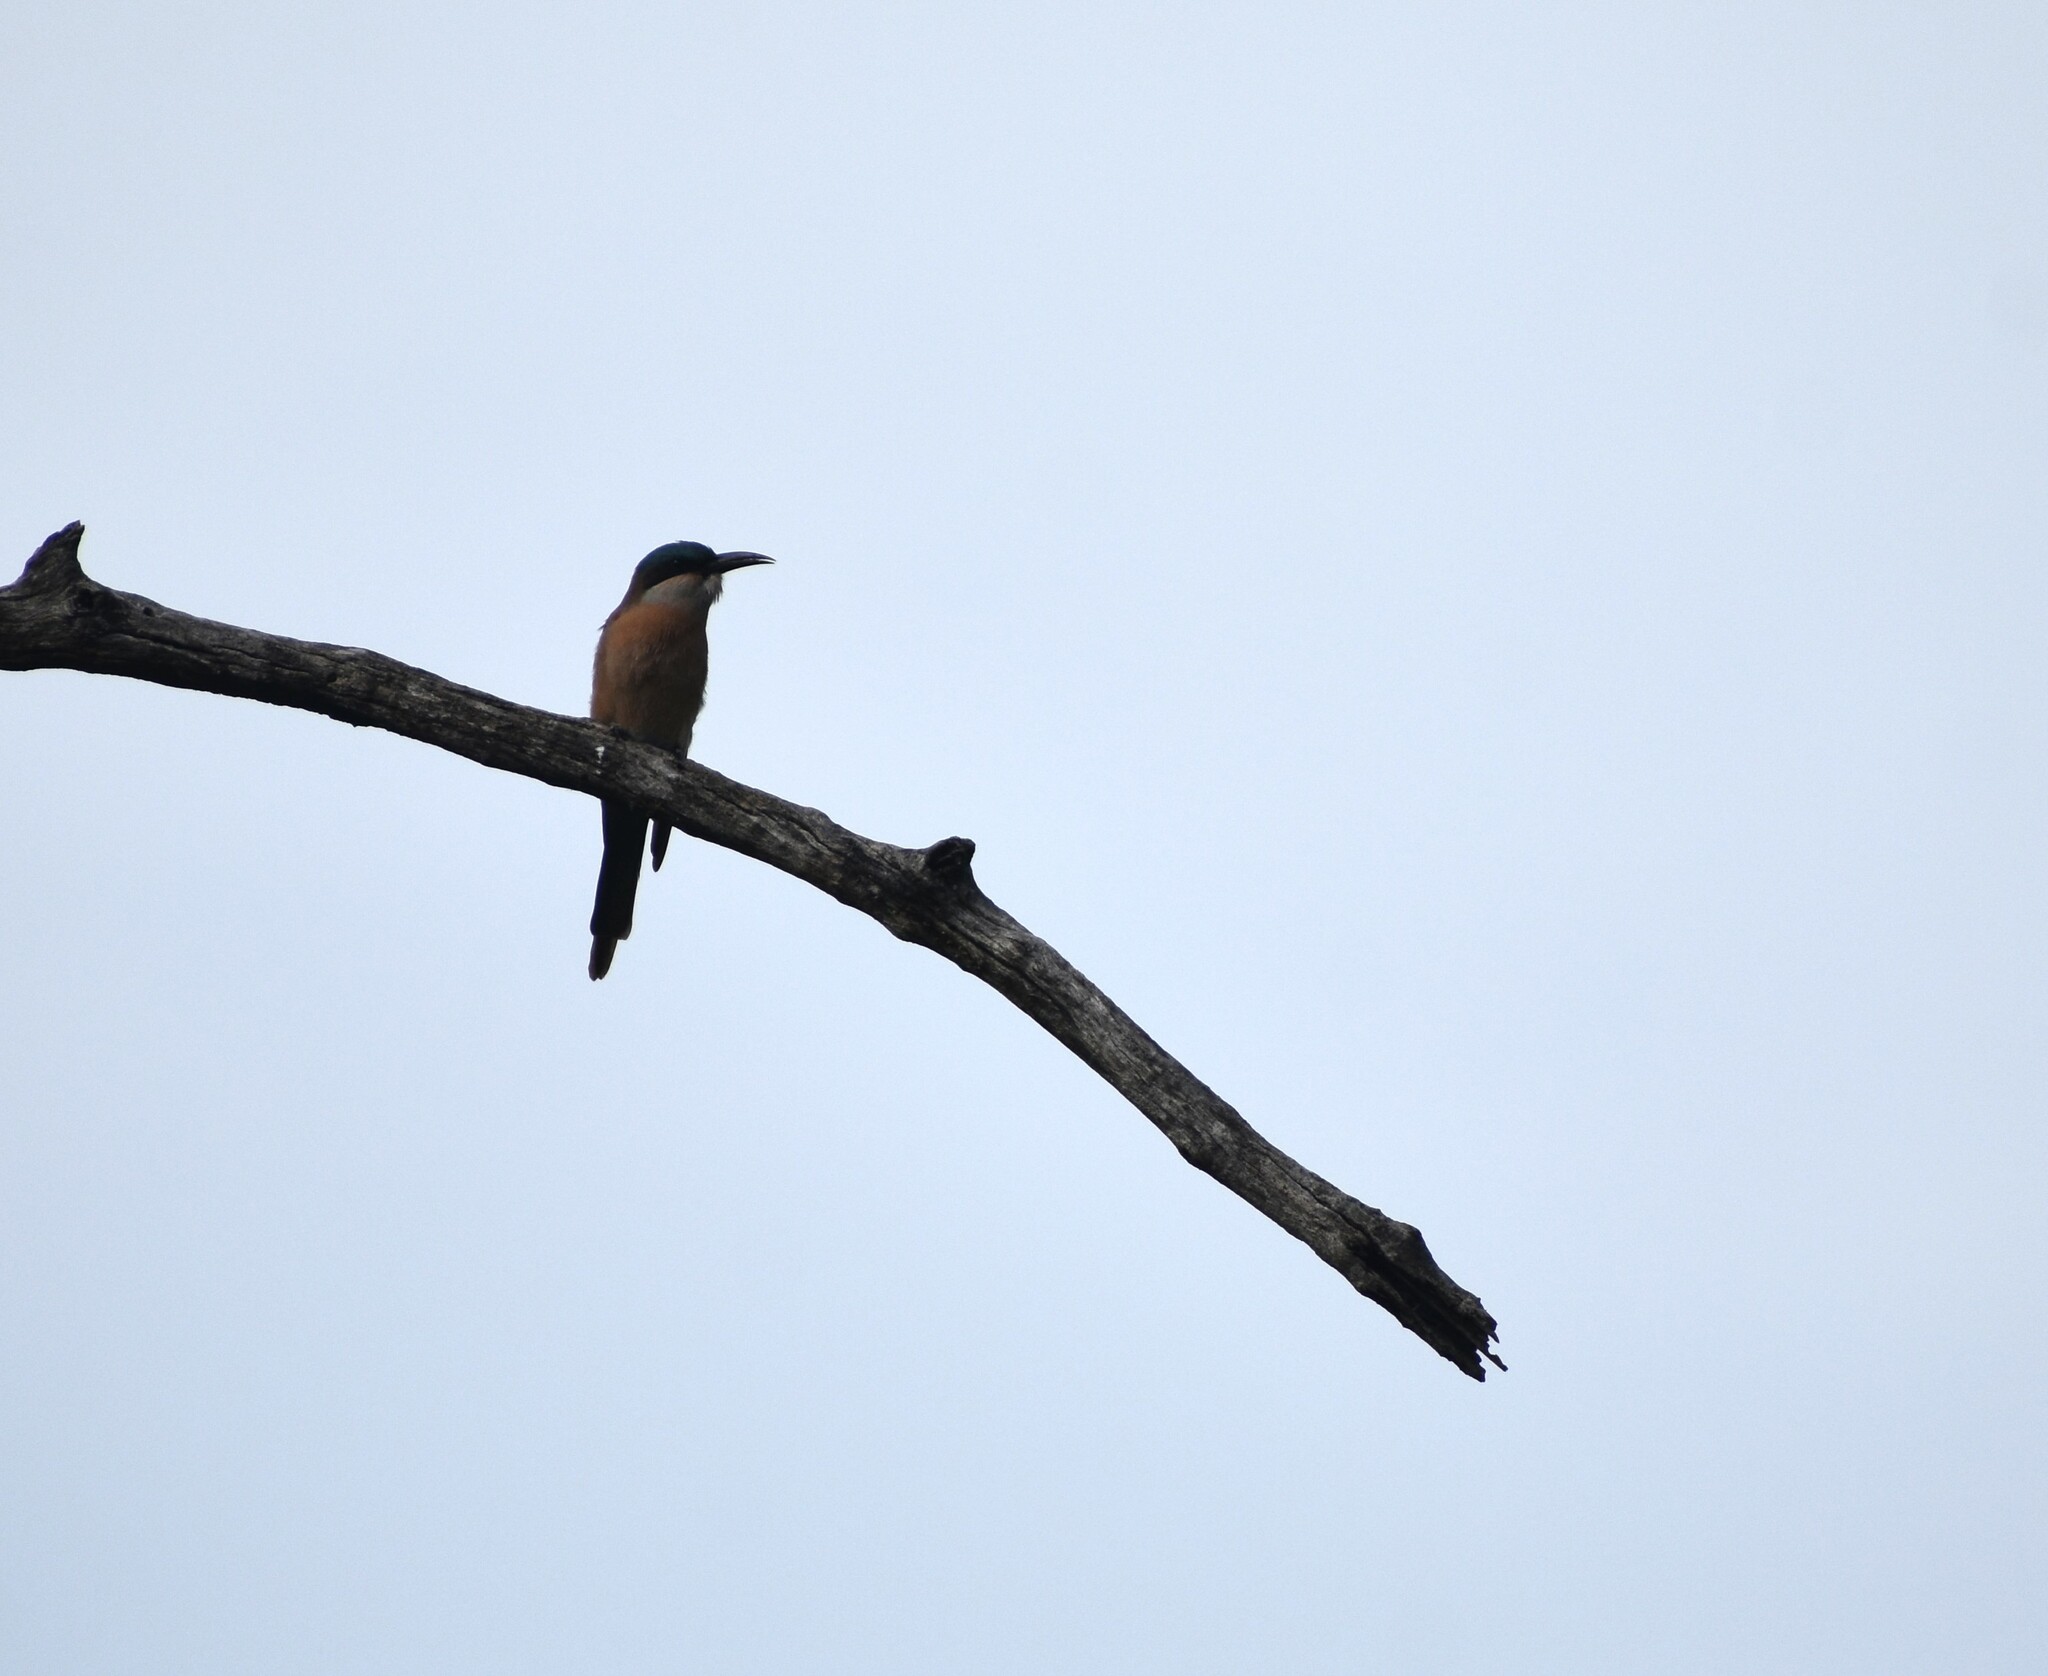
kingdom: Animalia
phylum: Chordata
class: Aves
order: Coraciiformes
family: Meropidae
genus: Merops
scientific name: Merops nubicoides
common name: Southern carmine bee-eater
